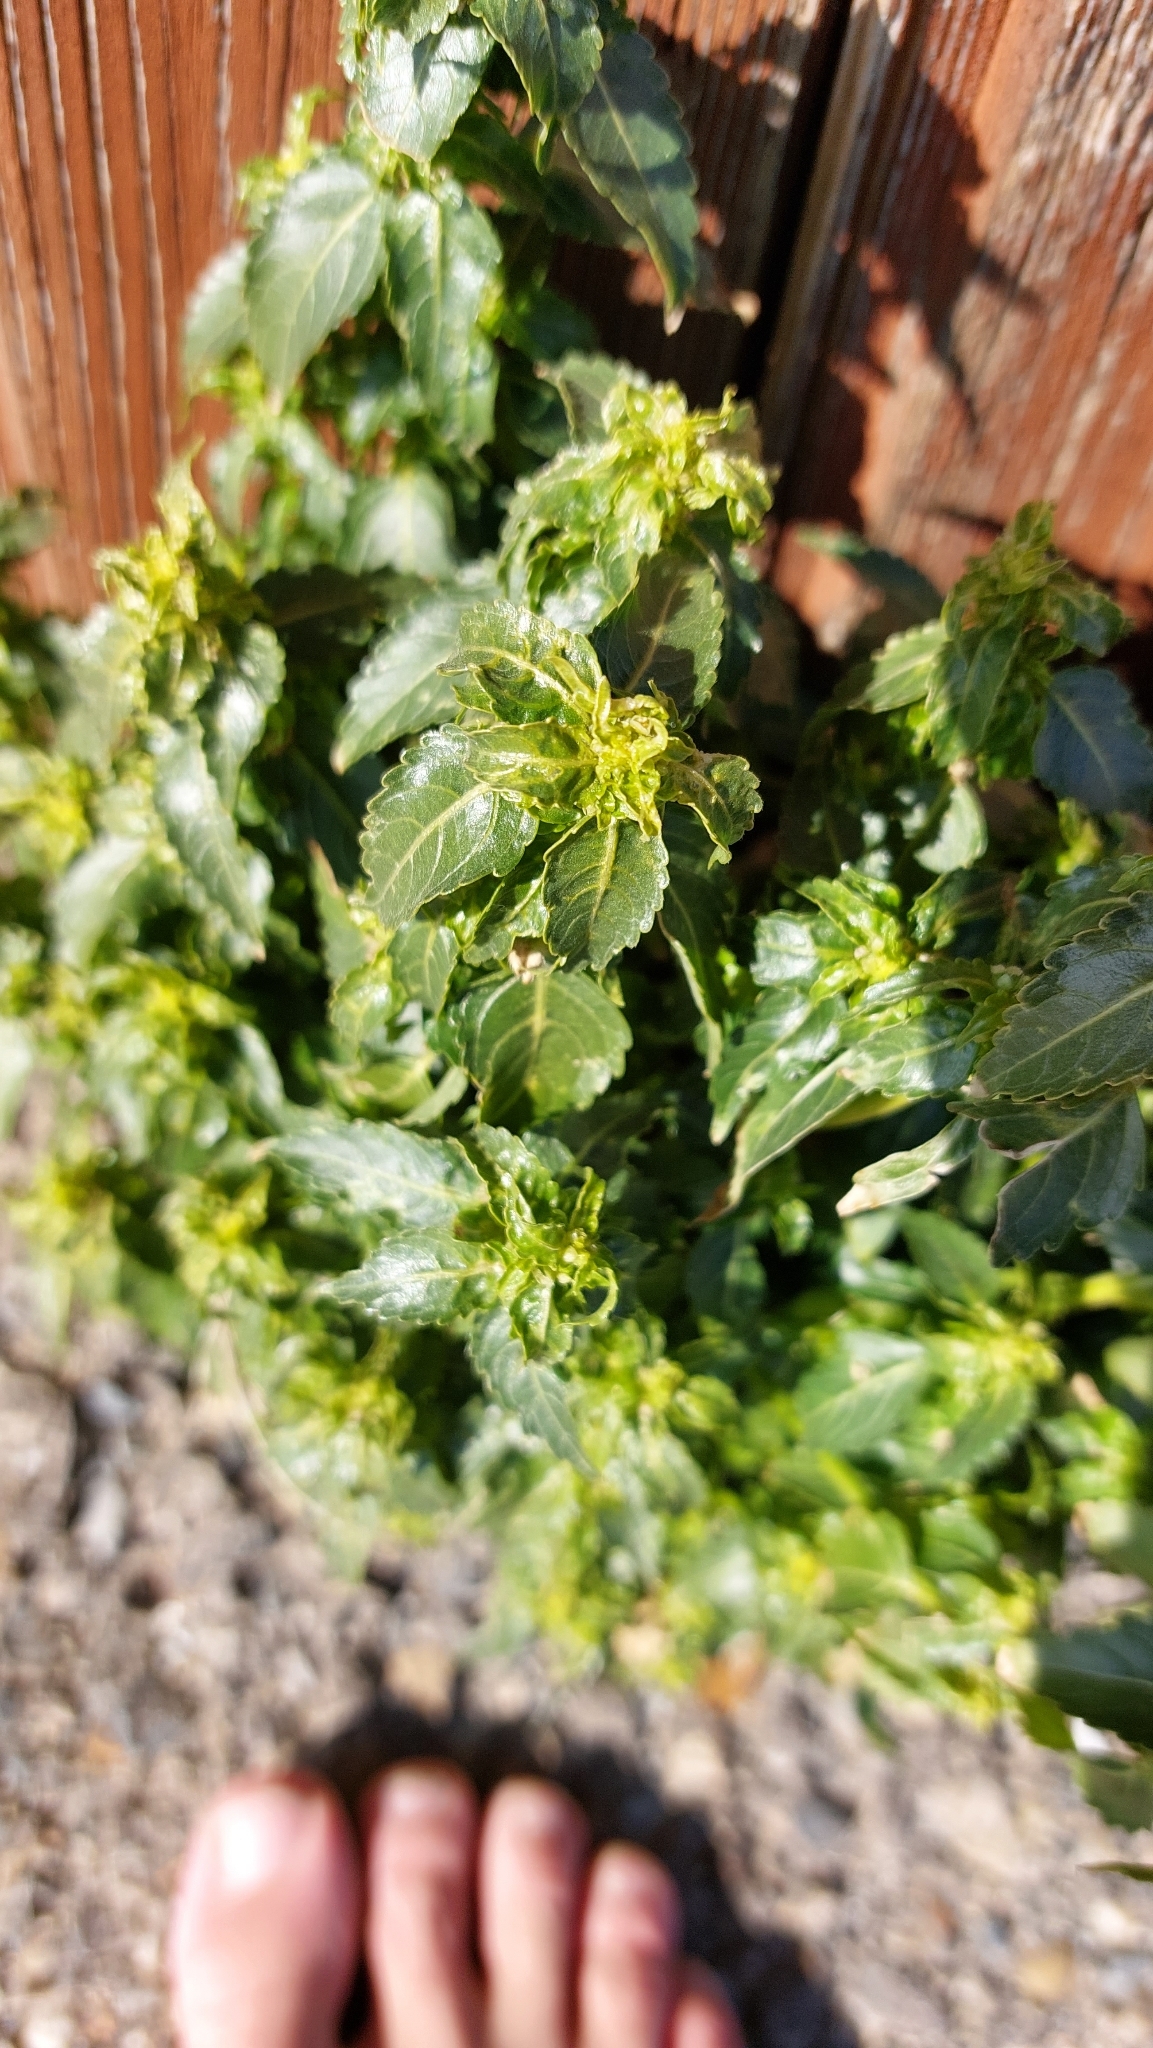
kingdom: Plantae
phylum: Tracheophyta
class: Magnoliopsida
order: Malpighiales
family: Euphorbiaceae
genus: Mercurialis
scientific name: Mercurialis annua
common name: Annual mercury
